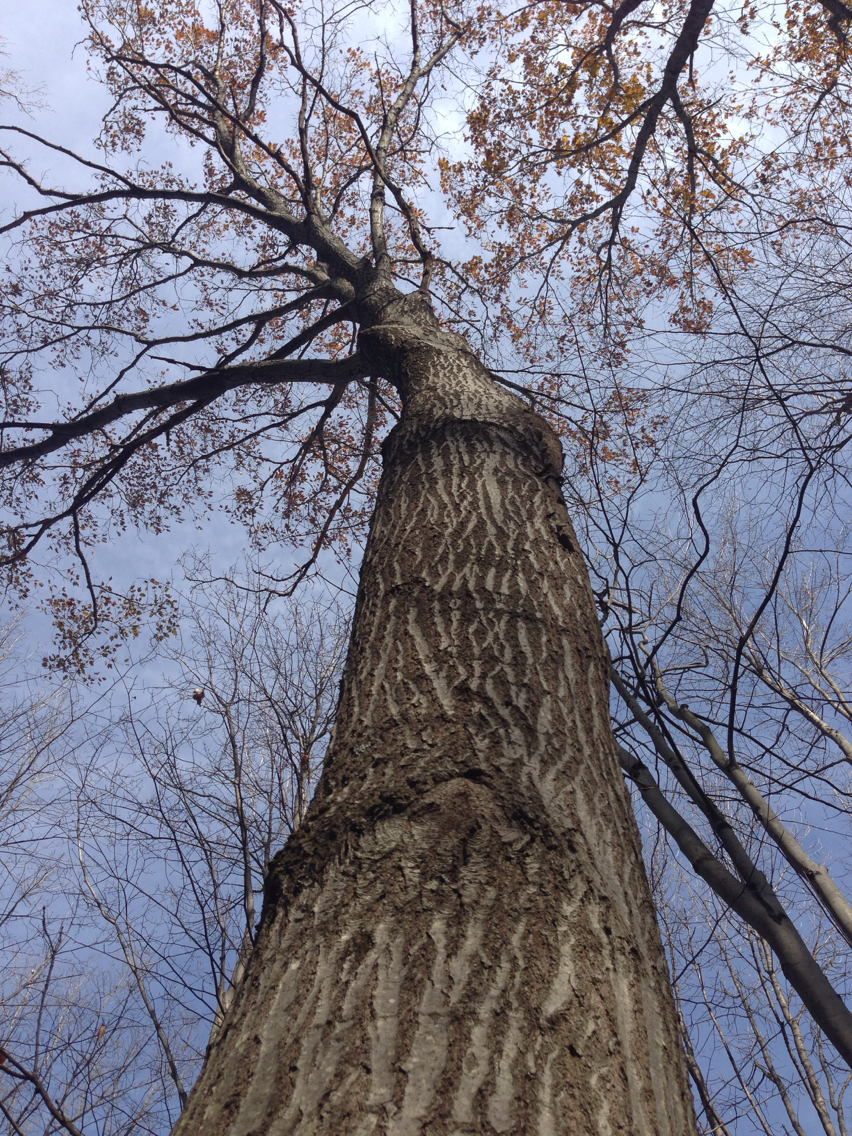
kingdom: Plantae
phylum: Tracheophyta
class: Magnoliopsida
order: Fagales
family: Fagaceae
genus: Quercus
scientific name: Quercus rubra
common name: Red oak
